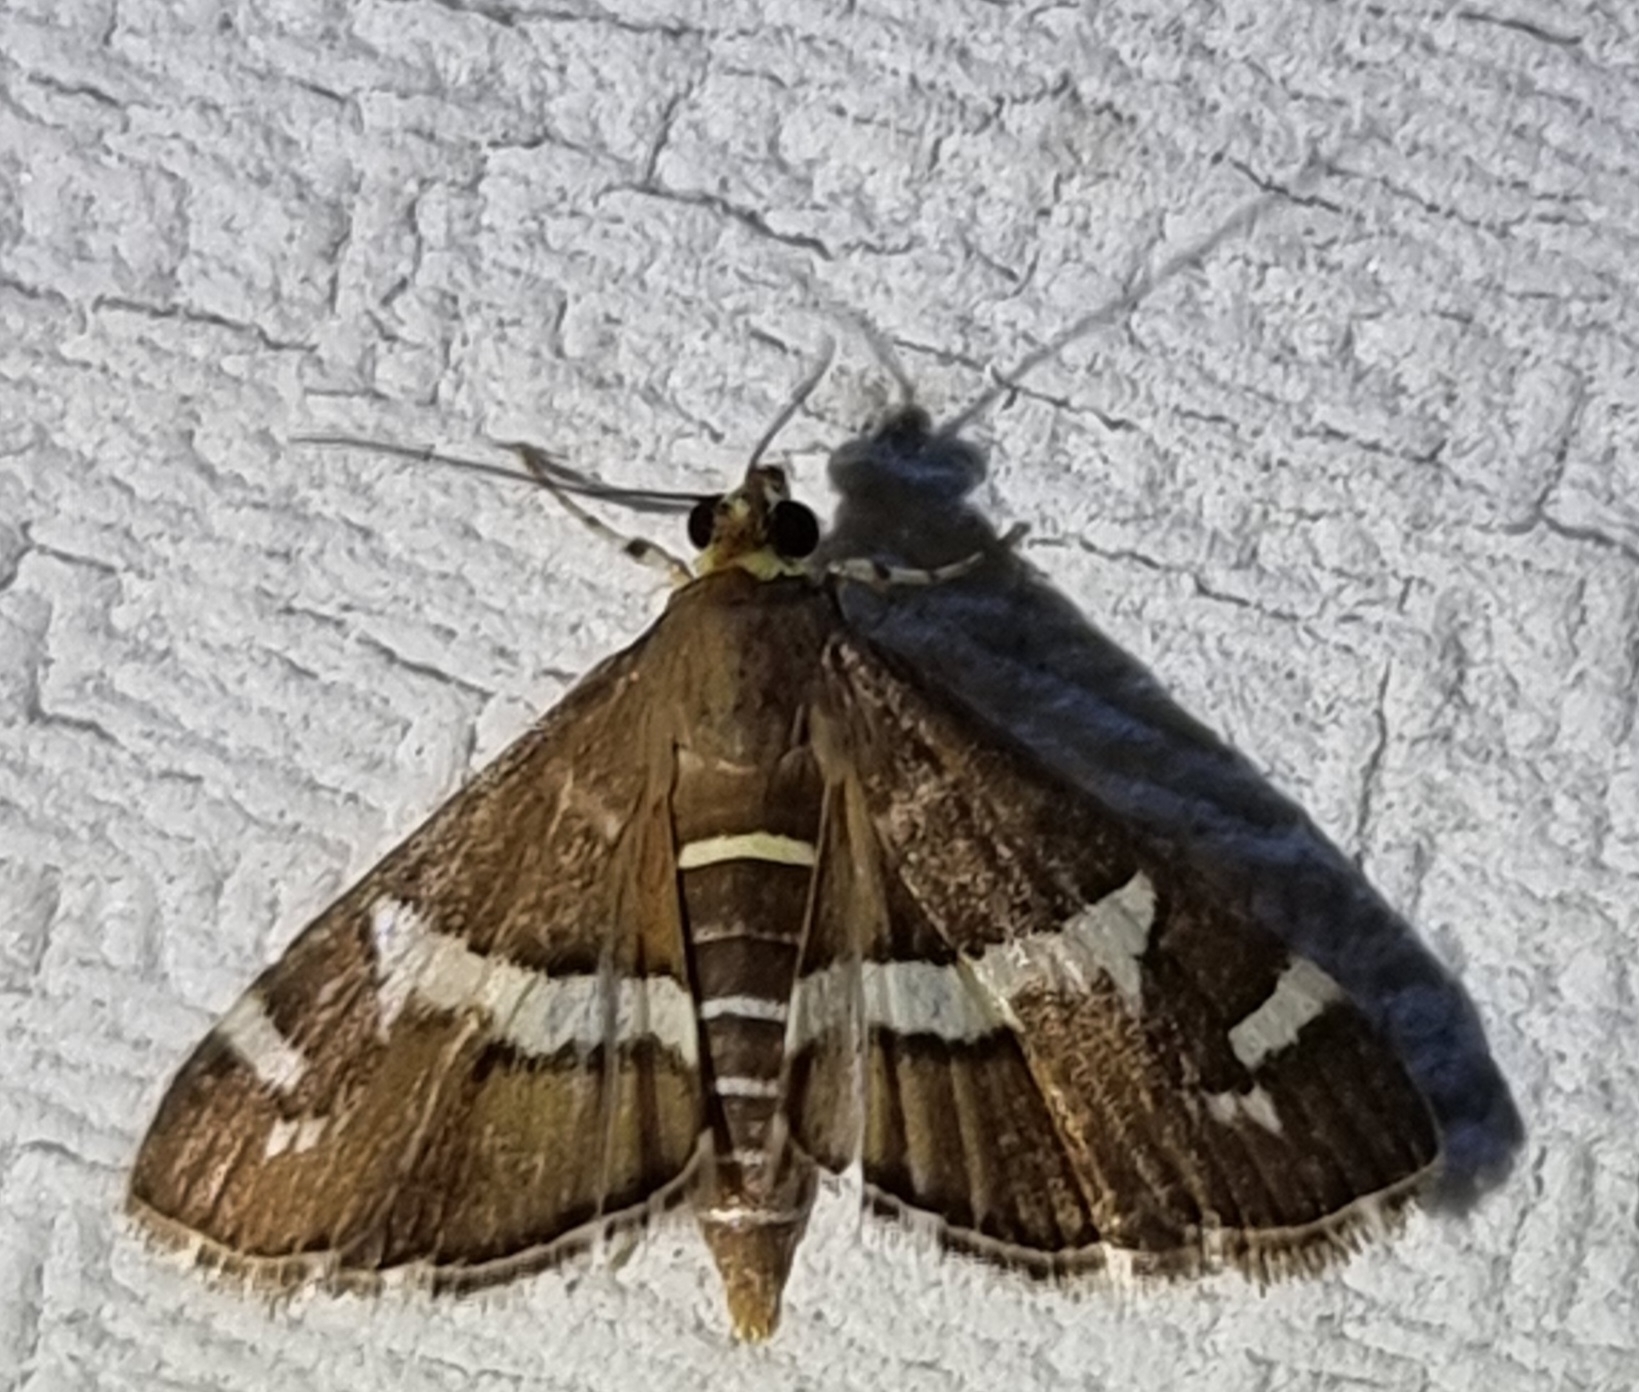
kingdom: Animalia
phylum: Arthropoda
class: Insecta
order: Lepidoptera
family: Crambidae
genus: Spoladea
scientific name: Spoladea recurvalis
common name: Beet webworm moth
